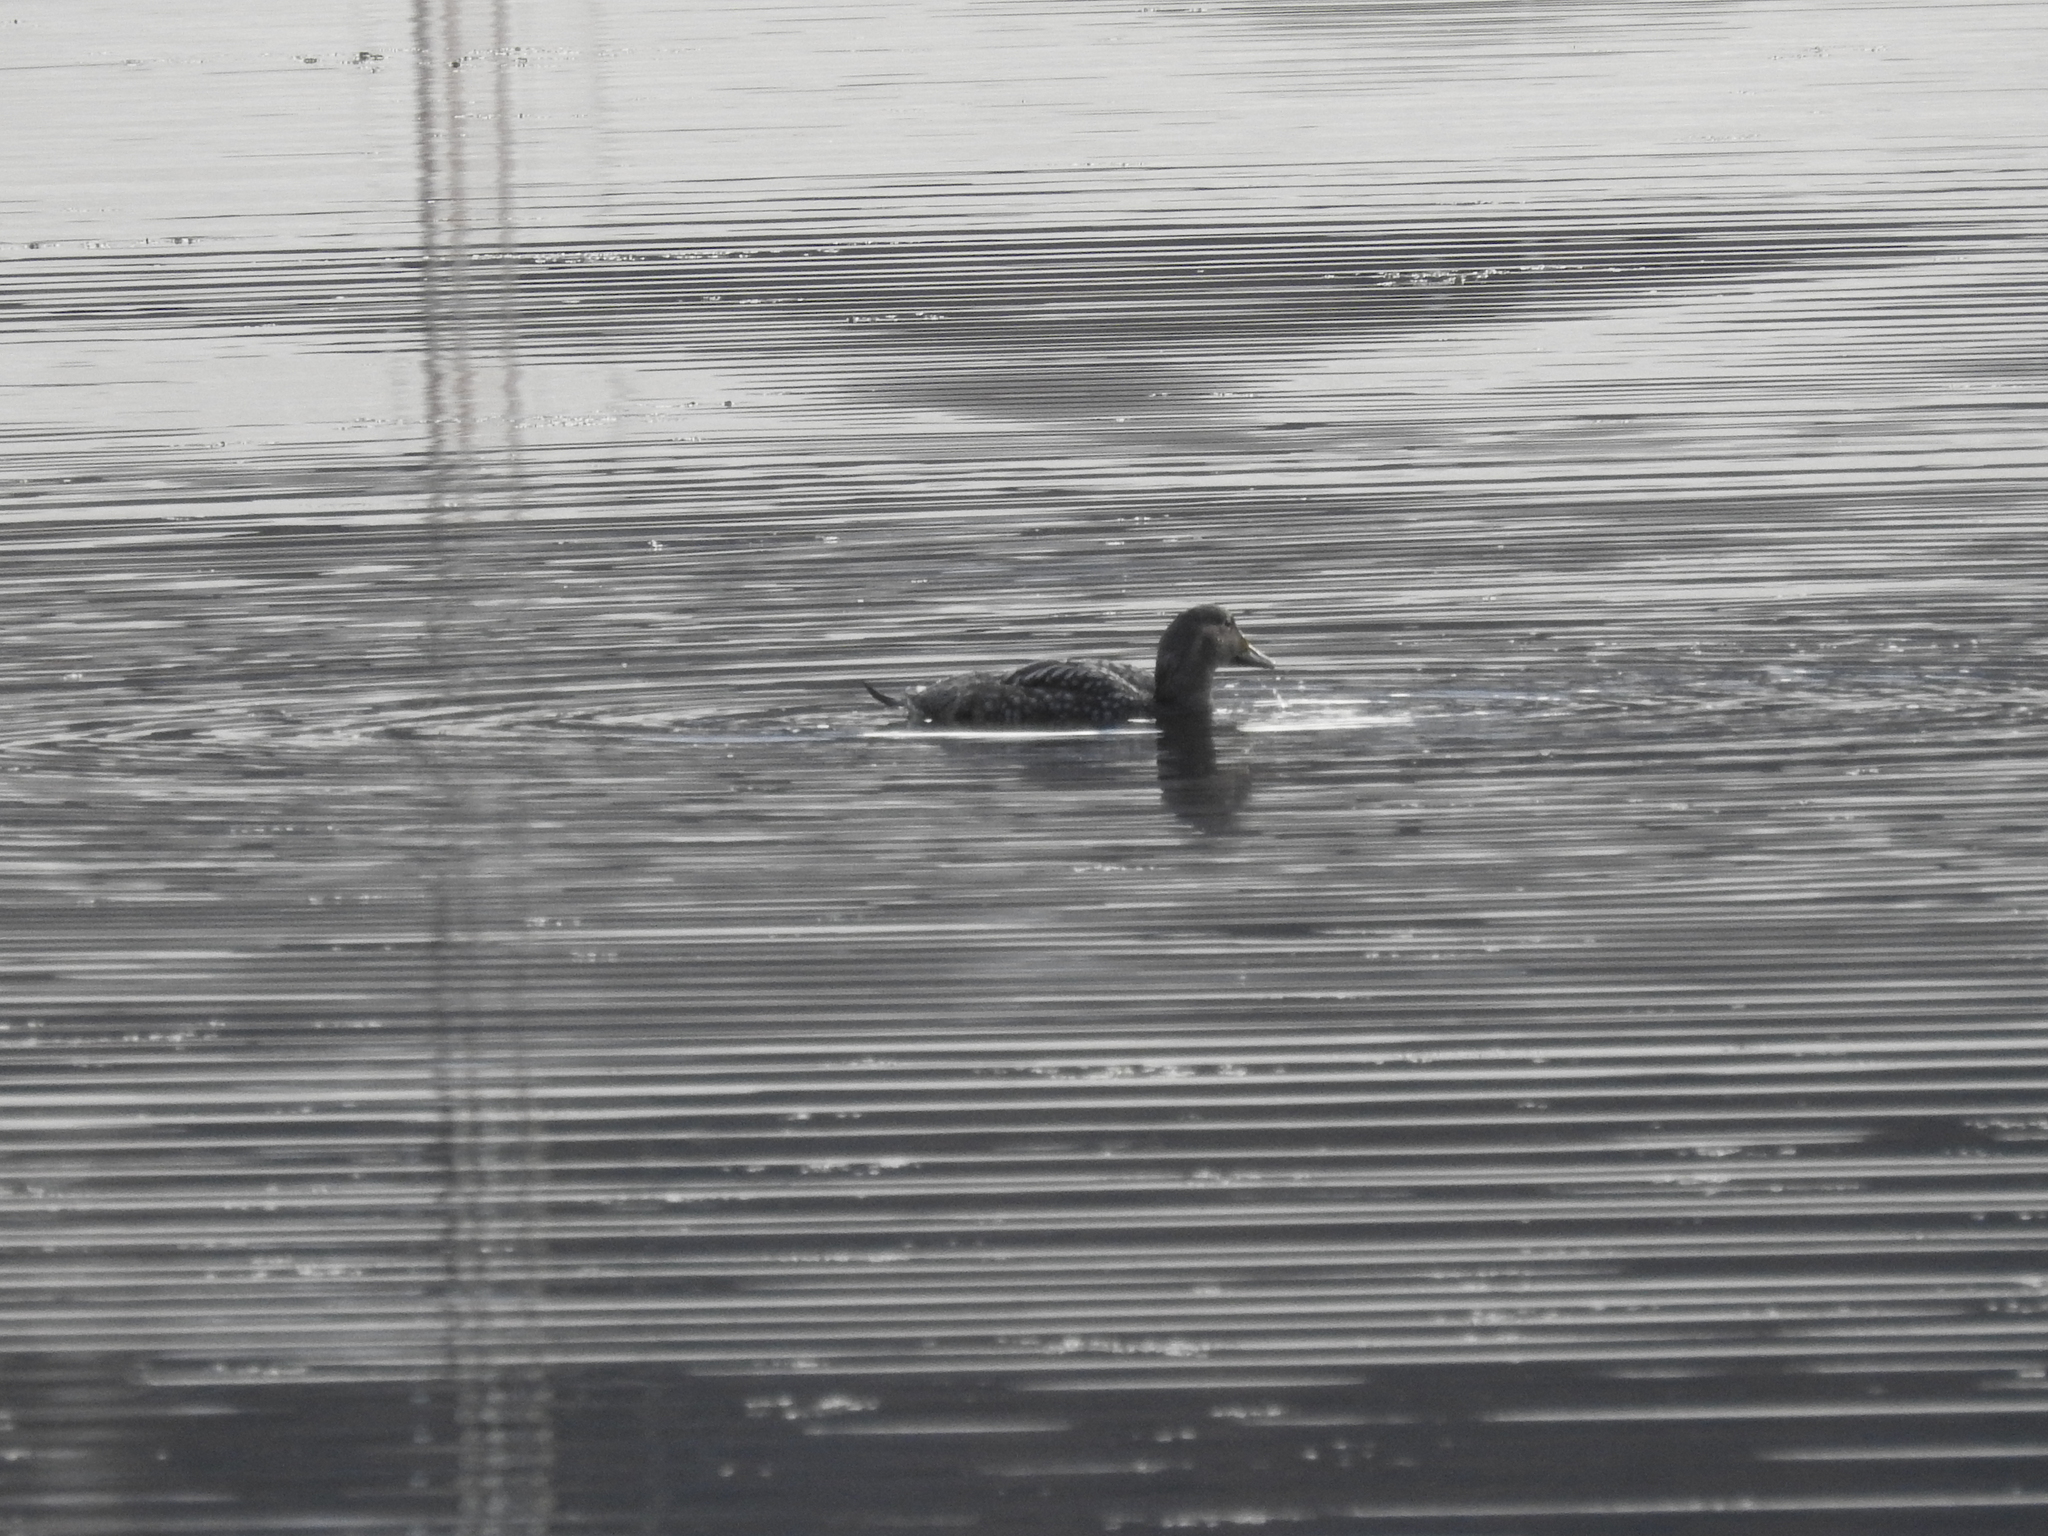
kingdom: Animalia
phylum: Chordata
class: Aves
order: Anseriformes
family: Anatidae
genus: Tachyeres
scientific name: Tachyeres patachonicus
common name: Flying steamer duck
